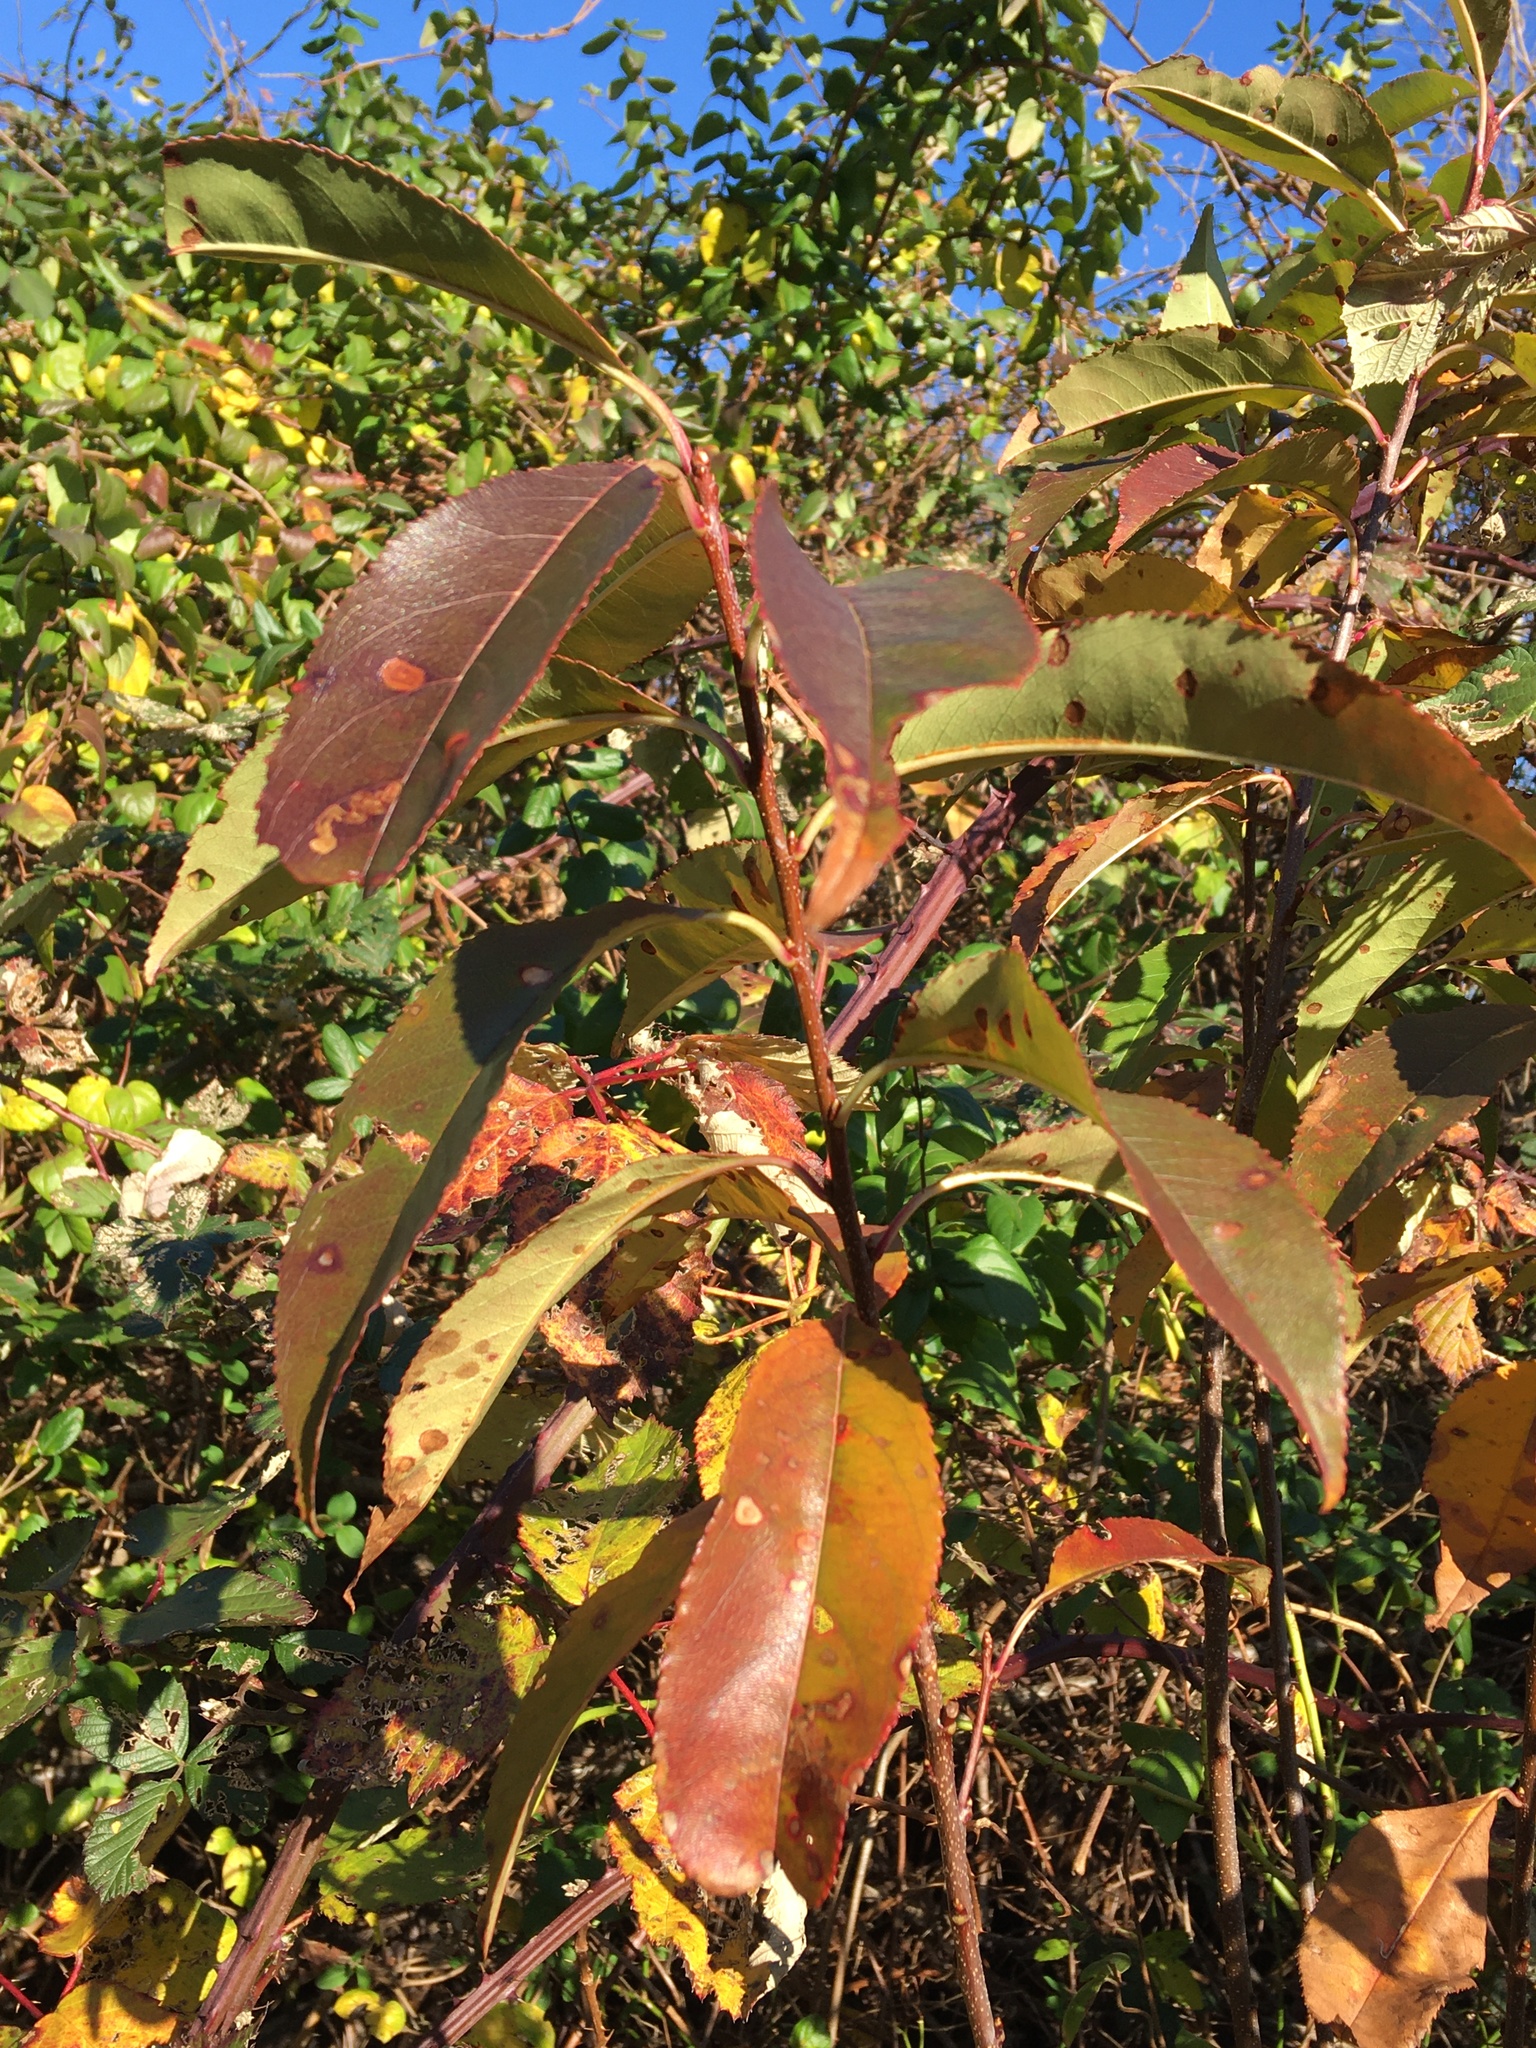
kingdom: Plantae
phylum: Tracheophyta
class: Magnoliopsida
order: Rosales
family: Rosaceae
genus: Prunus
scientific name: Prunus serotina
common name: Black cherry
